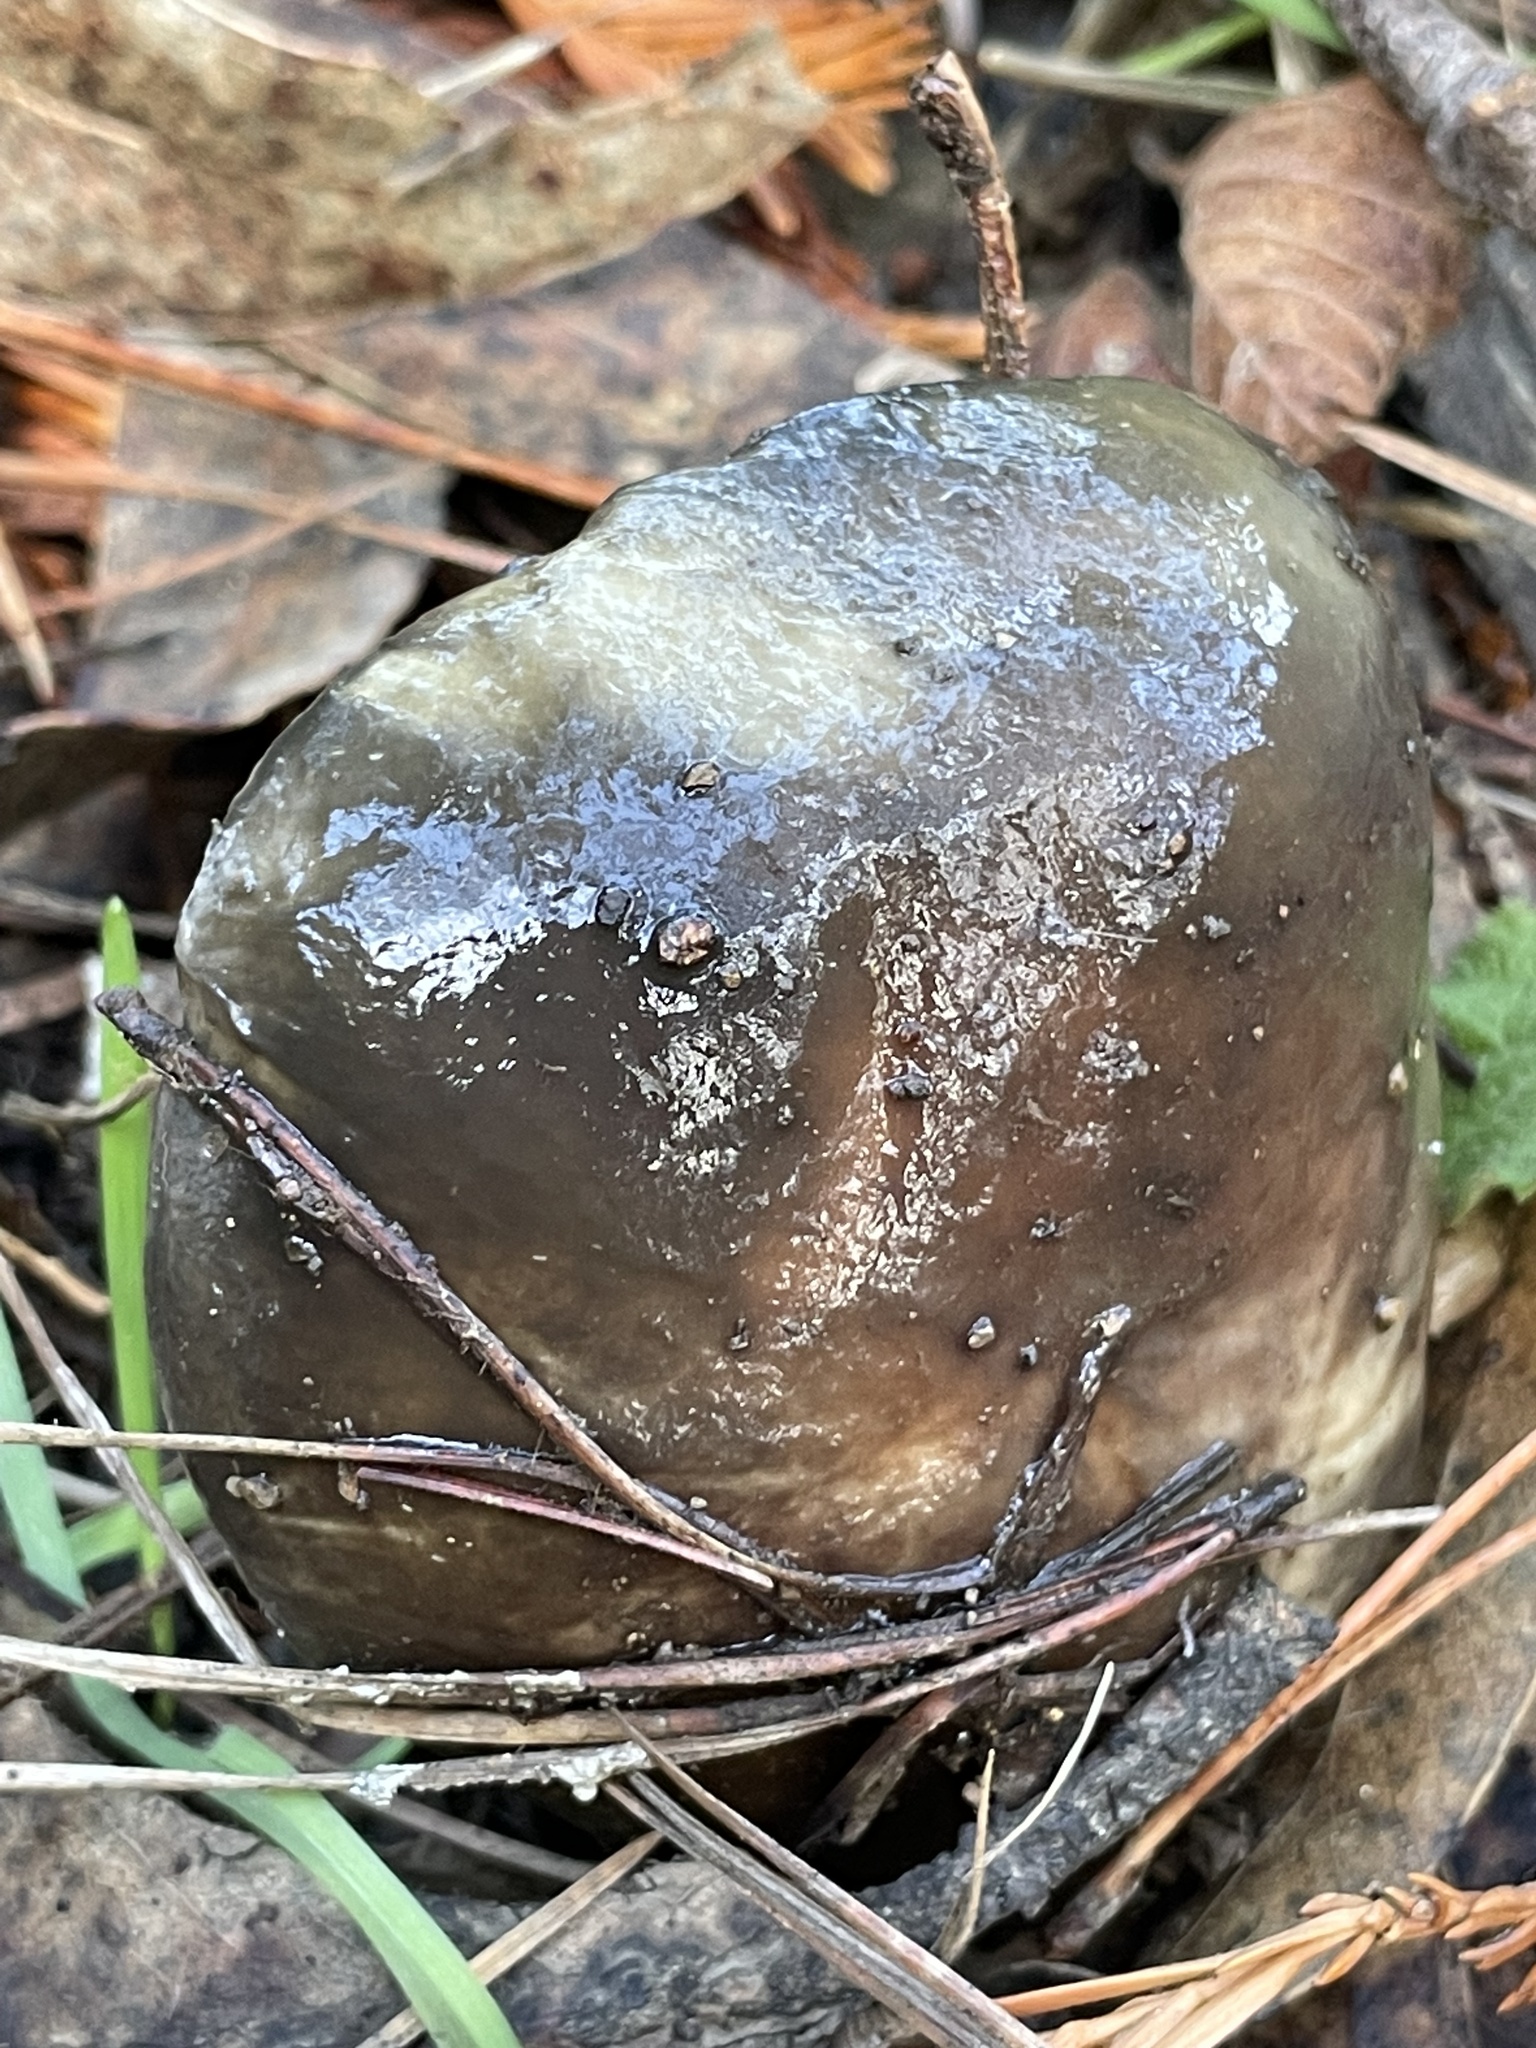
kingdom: Fungi
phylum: Basidiomycota
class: Agaricomycetes
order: Boletales
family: Suillaceae
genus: Suillus
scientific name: Suillus pungens
